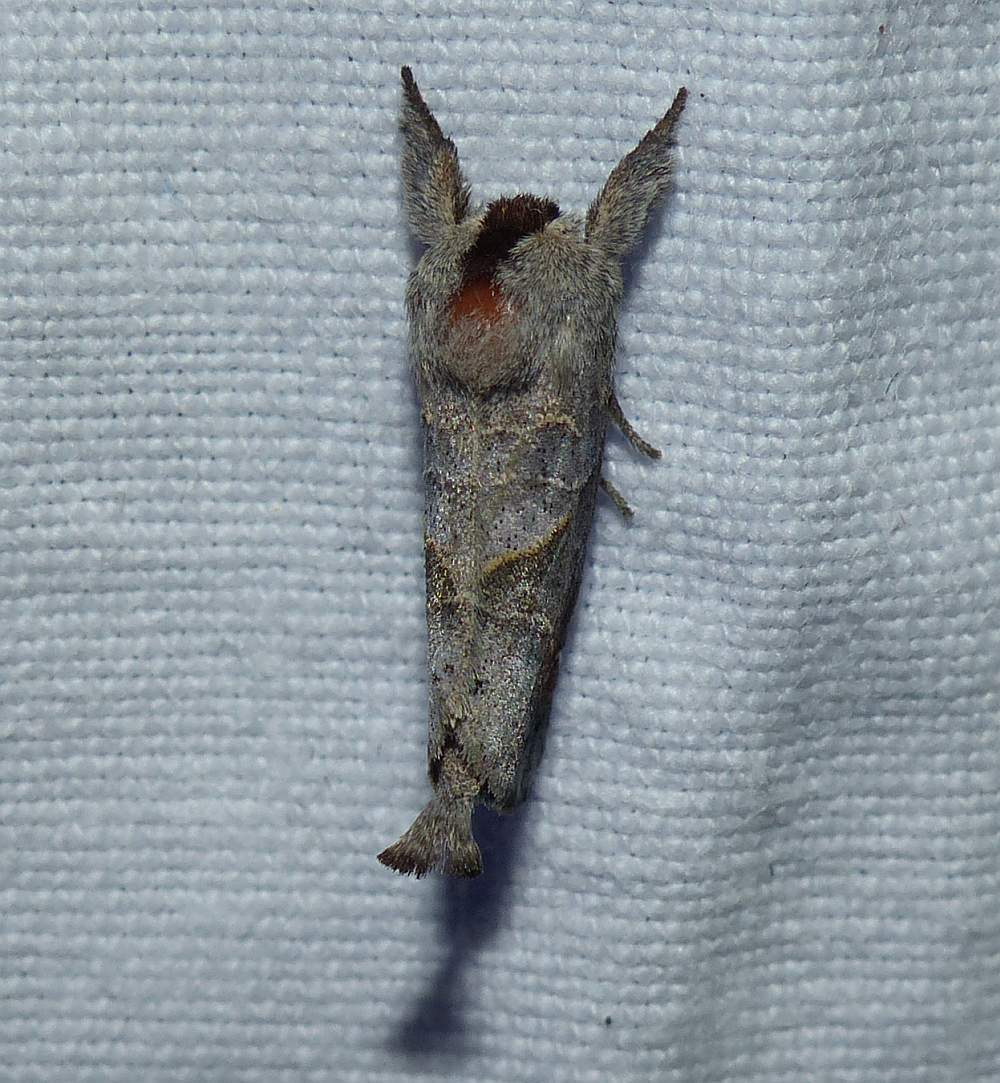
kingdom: Animalia
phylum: Arthropoda
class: Insecta
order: Lepidoptera
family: Notodontidae
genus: Clostera
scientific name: Clostera apicalis
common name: Apical prominent
